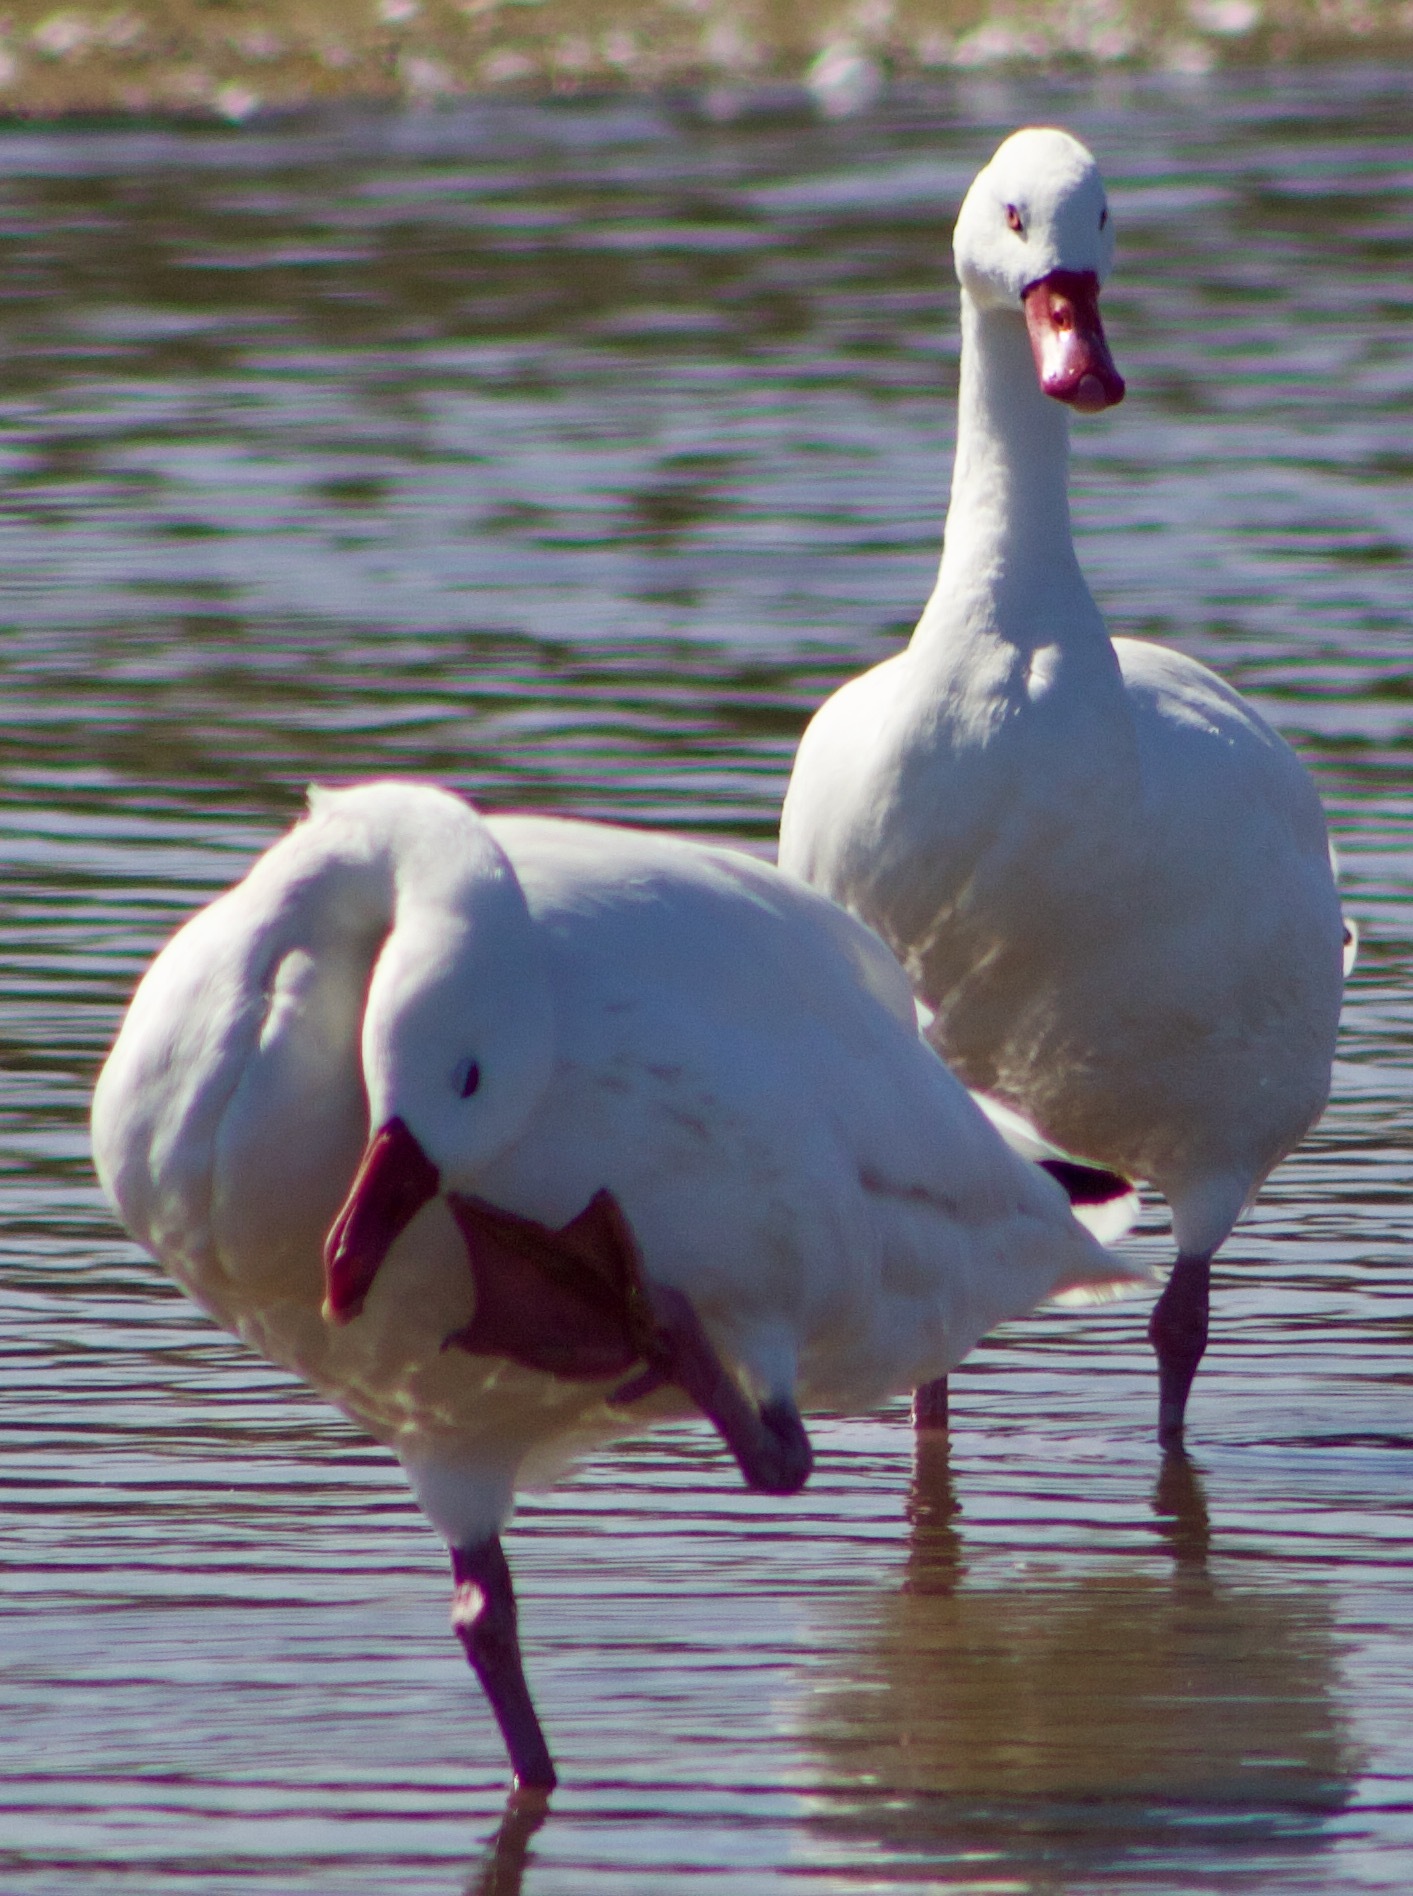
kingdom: Animalia
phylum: Chordata
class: Aves
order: Anseriformes
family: Anatidae
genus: Coscoroba
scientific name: Coscoroba coscoroba
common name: Coscoroba swan
